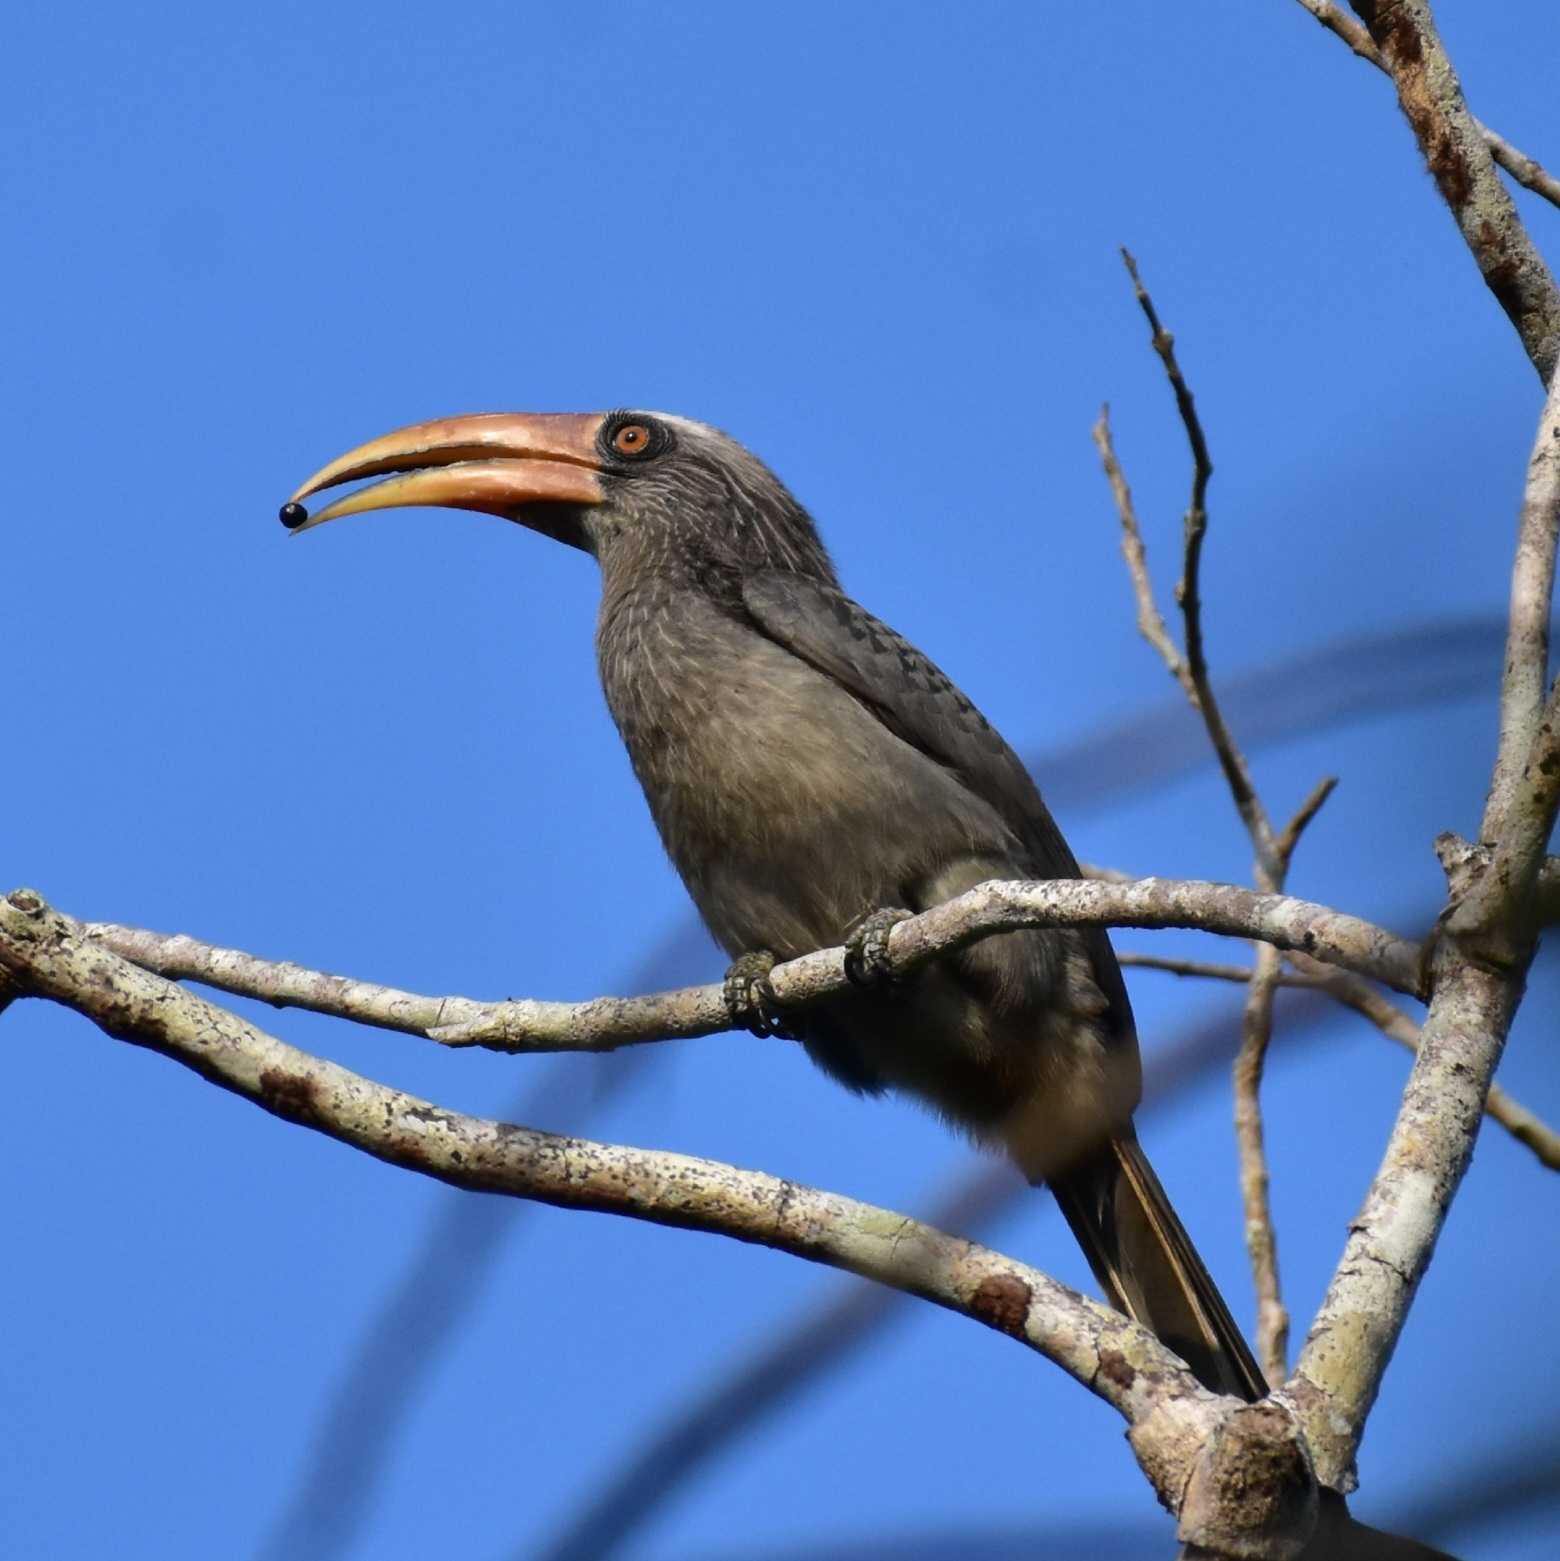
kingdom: Animalia
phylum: Chordata
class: Aves
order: Bucerotiformes
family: Bucerotidae
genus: Ocyceros
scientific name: Ocyceros griseus
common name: Malabar grey hornbill
